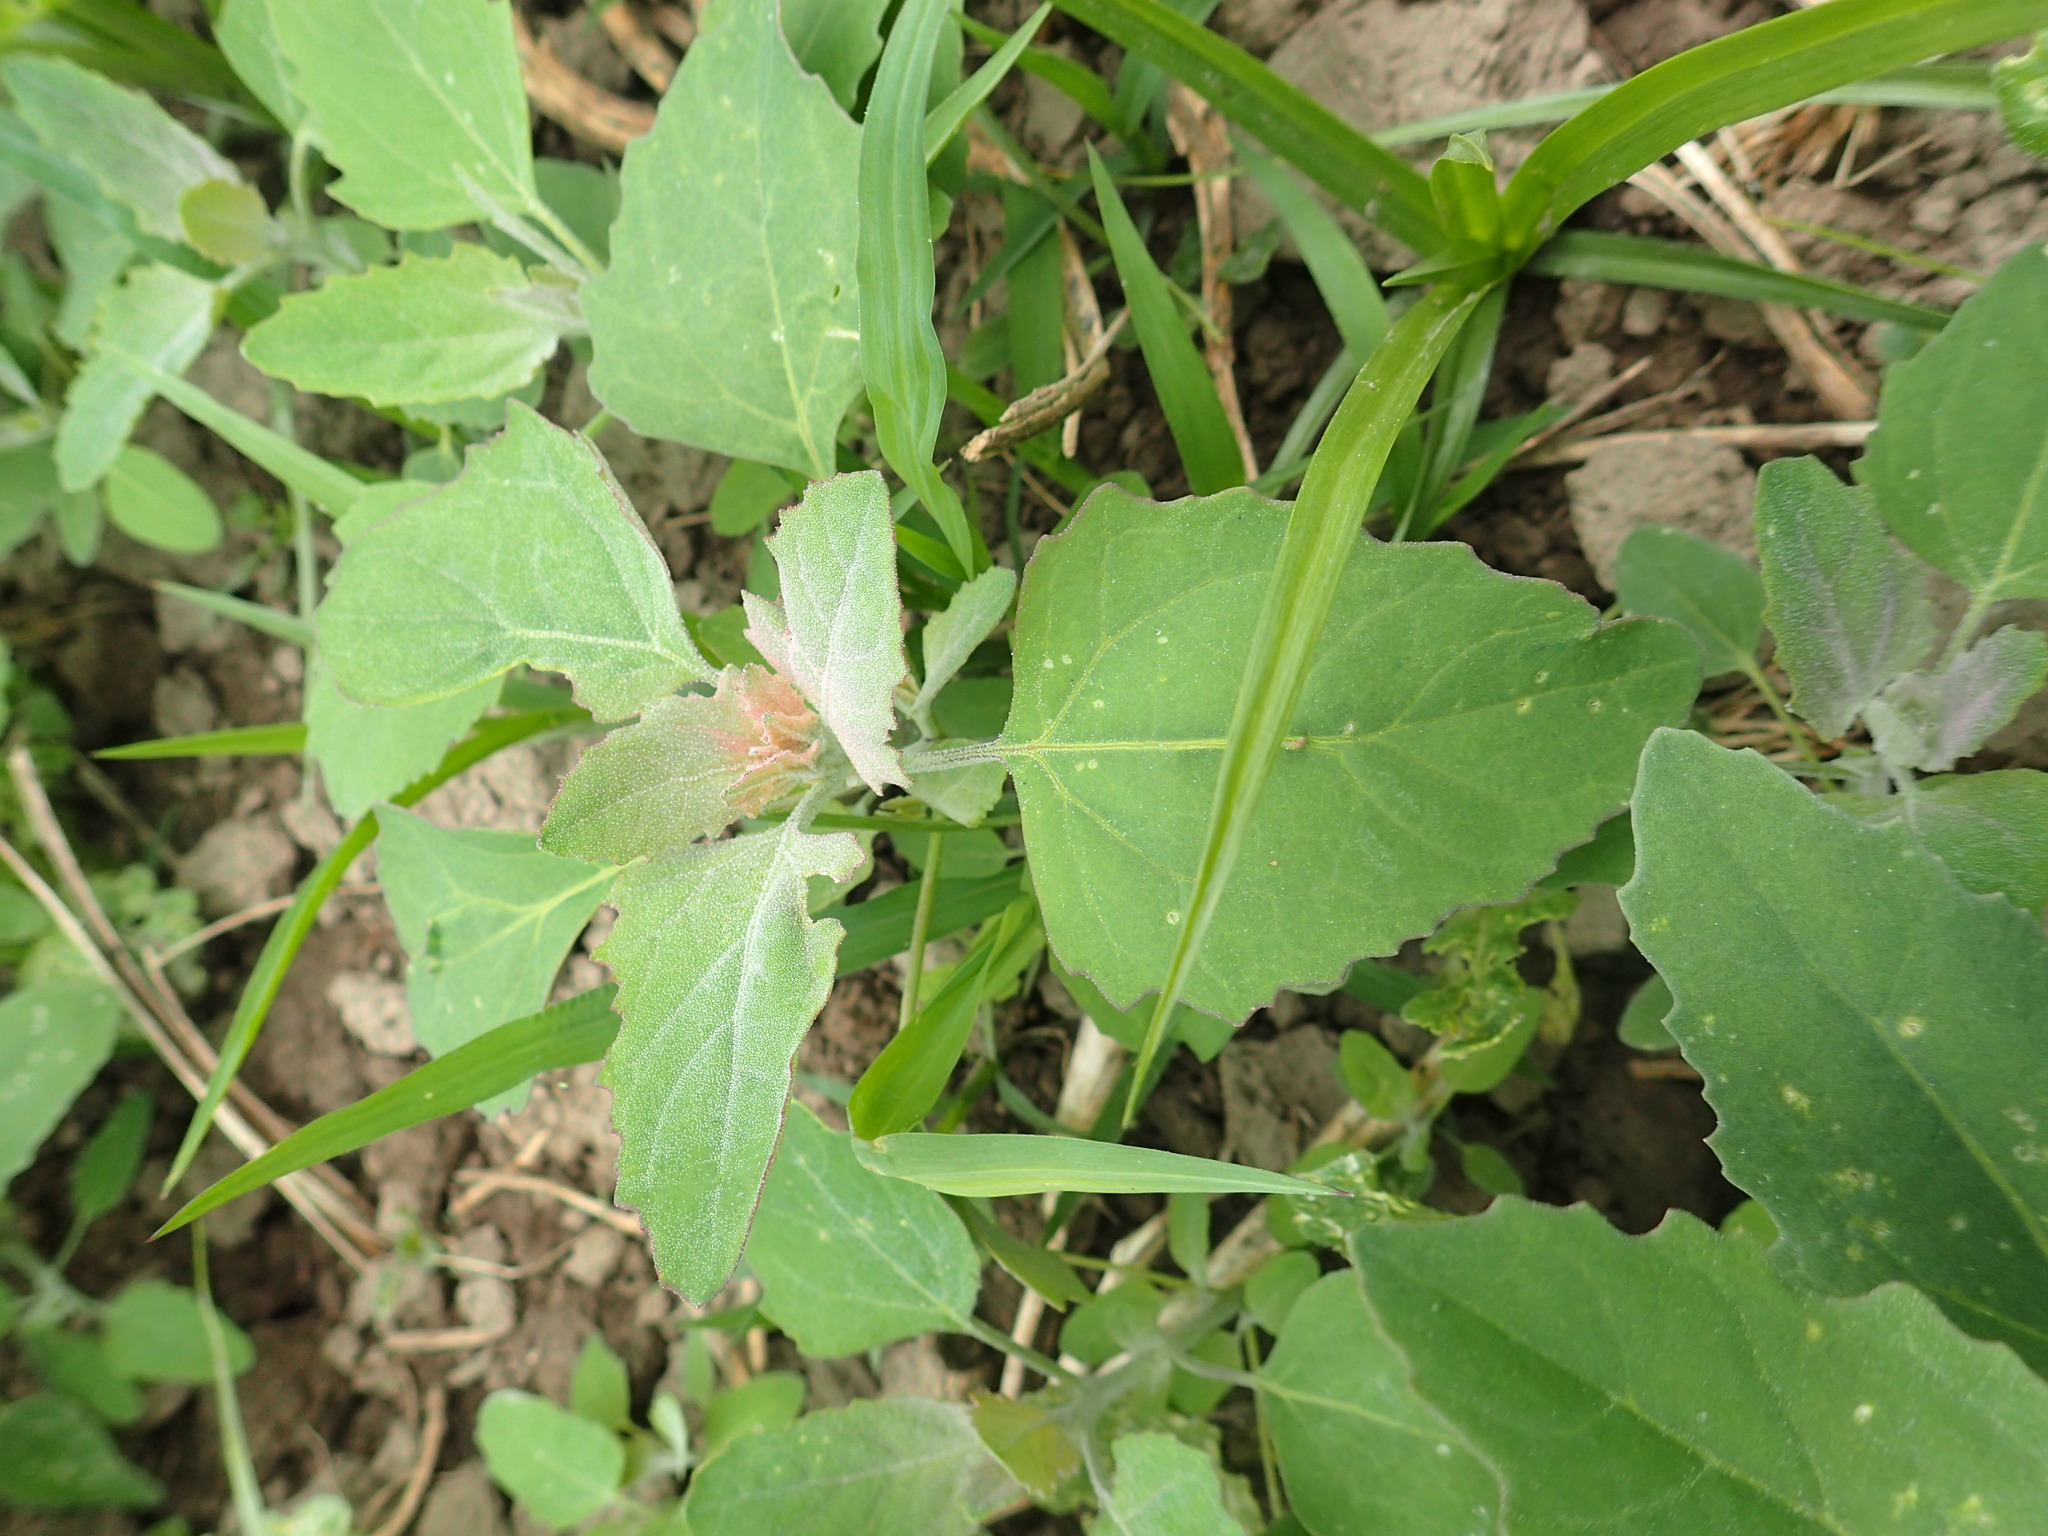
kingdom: Plantae
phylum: Tracheophyta
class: Magnoliopsida
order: Caryophyllales
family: Amaranthaceae
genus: Chenopodium
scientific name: Chenopodium album
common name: Fat-hen
